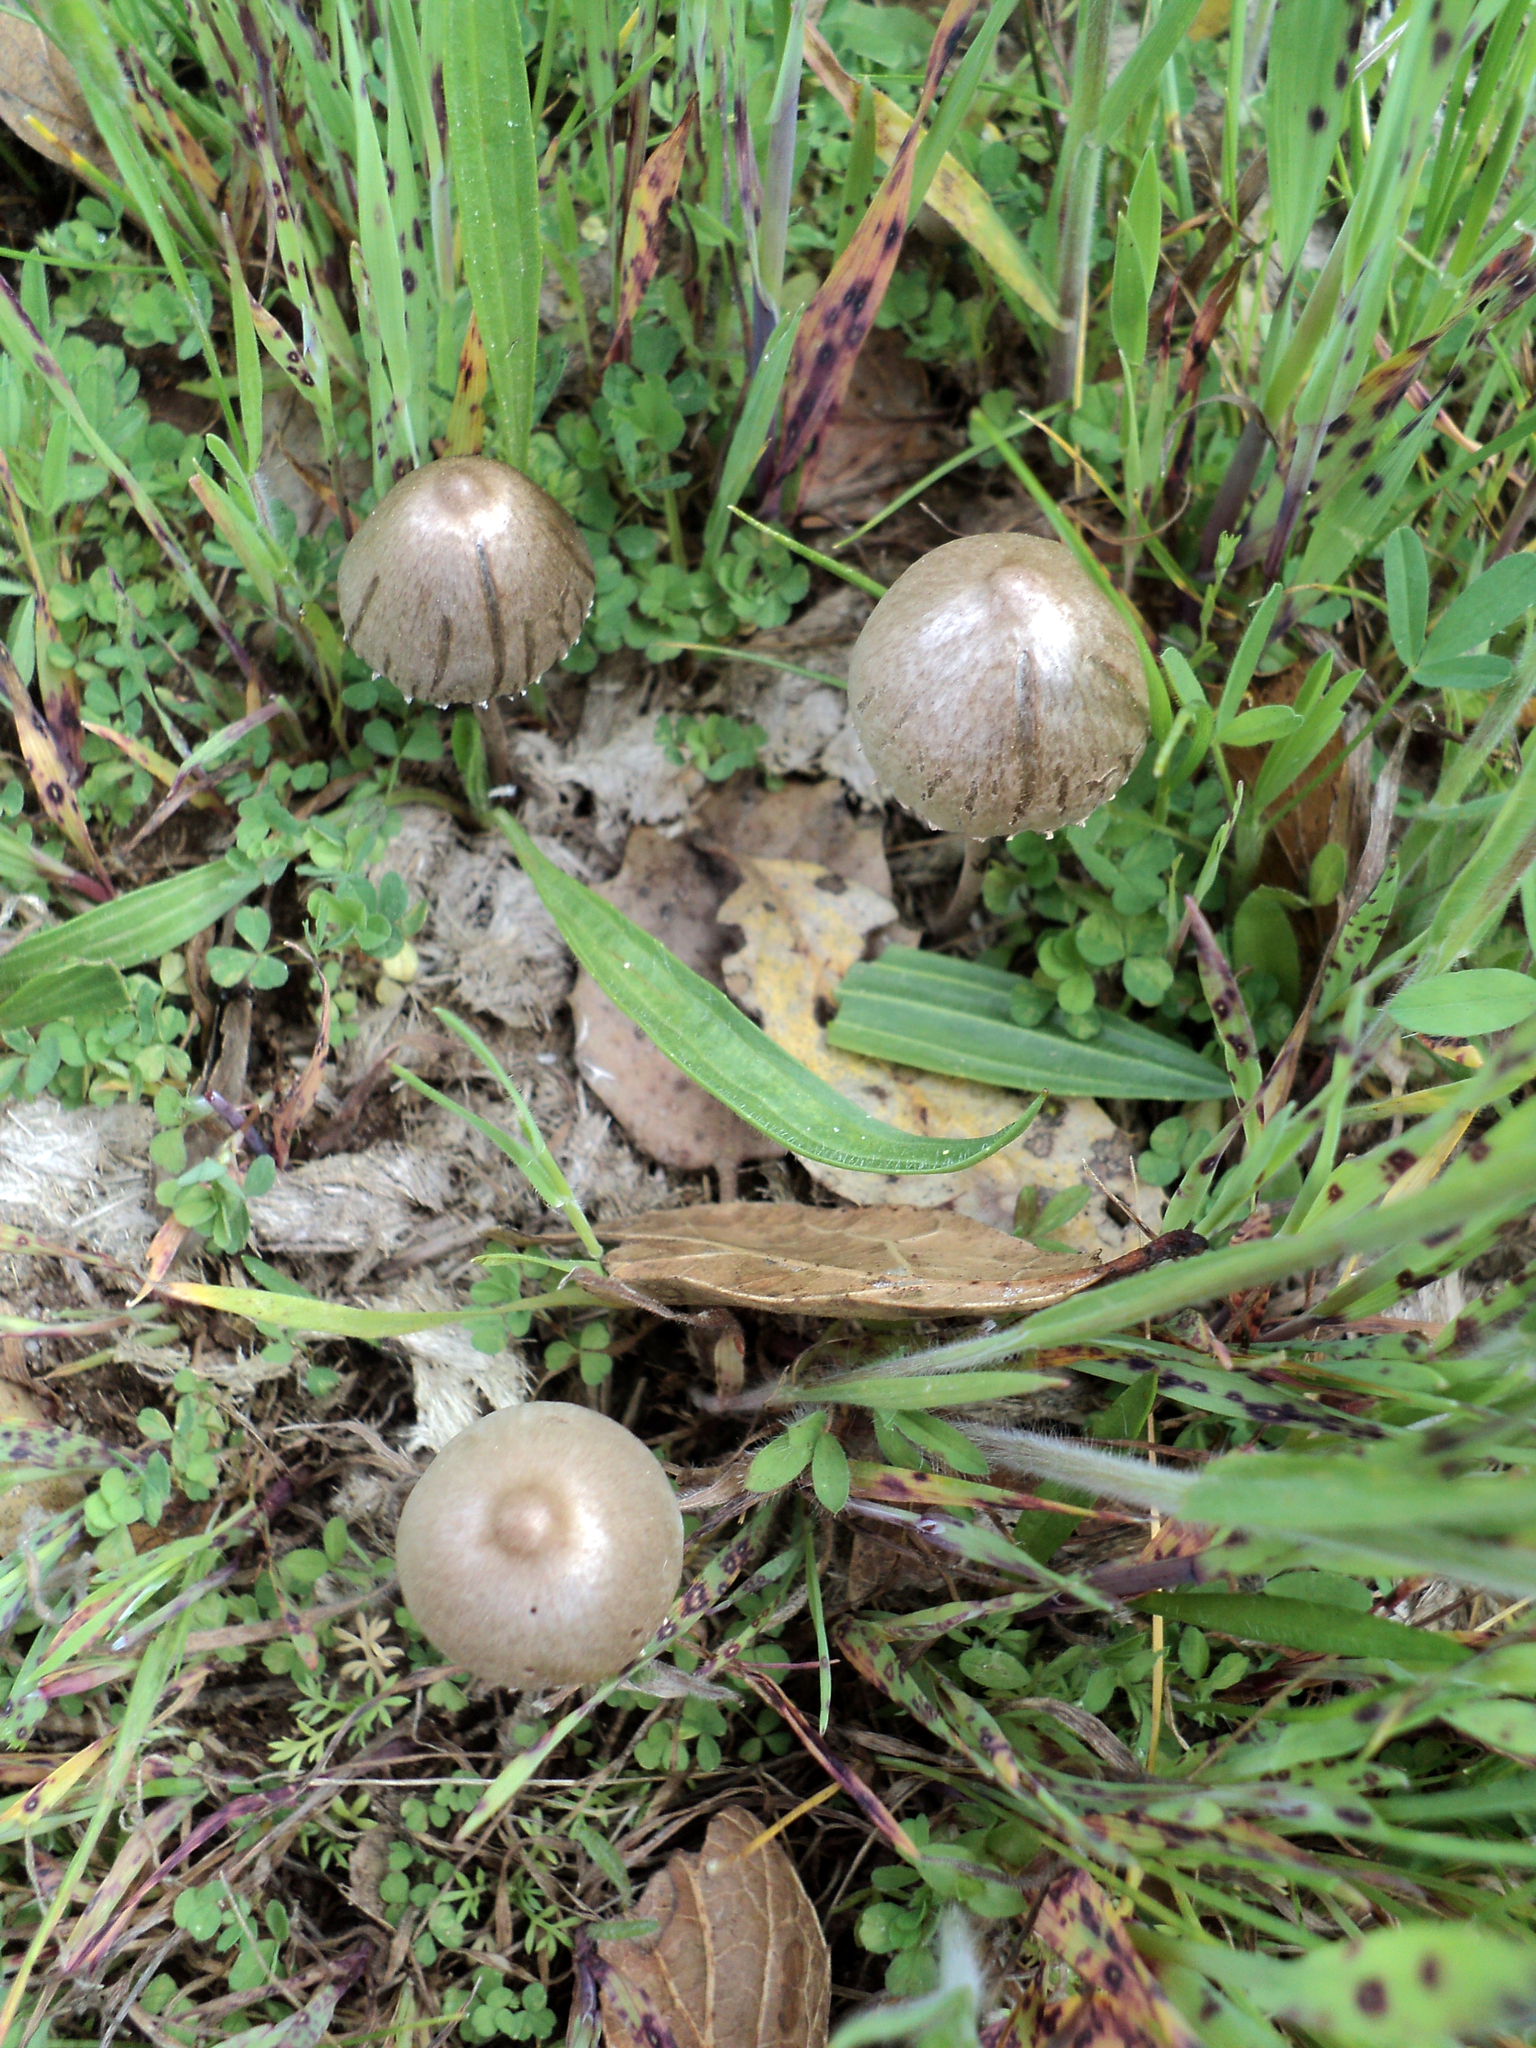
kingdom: Fungi
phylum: Basidiomycota
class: Agaricomycetes
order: Agaricales
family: Bolbitiaceae
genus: Panaeolus
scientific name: Panaeolus papilionaceus
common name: Petticoat mottlegill
